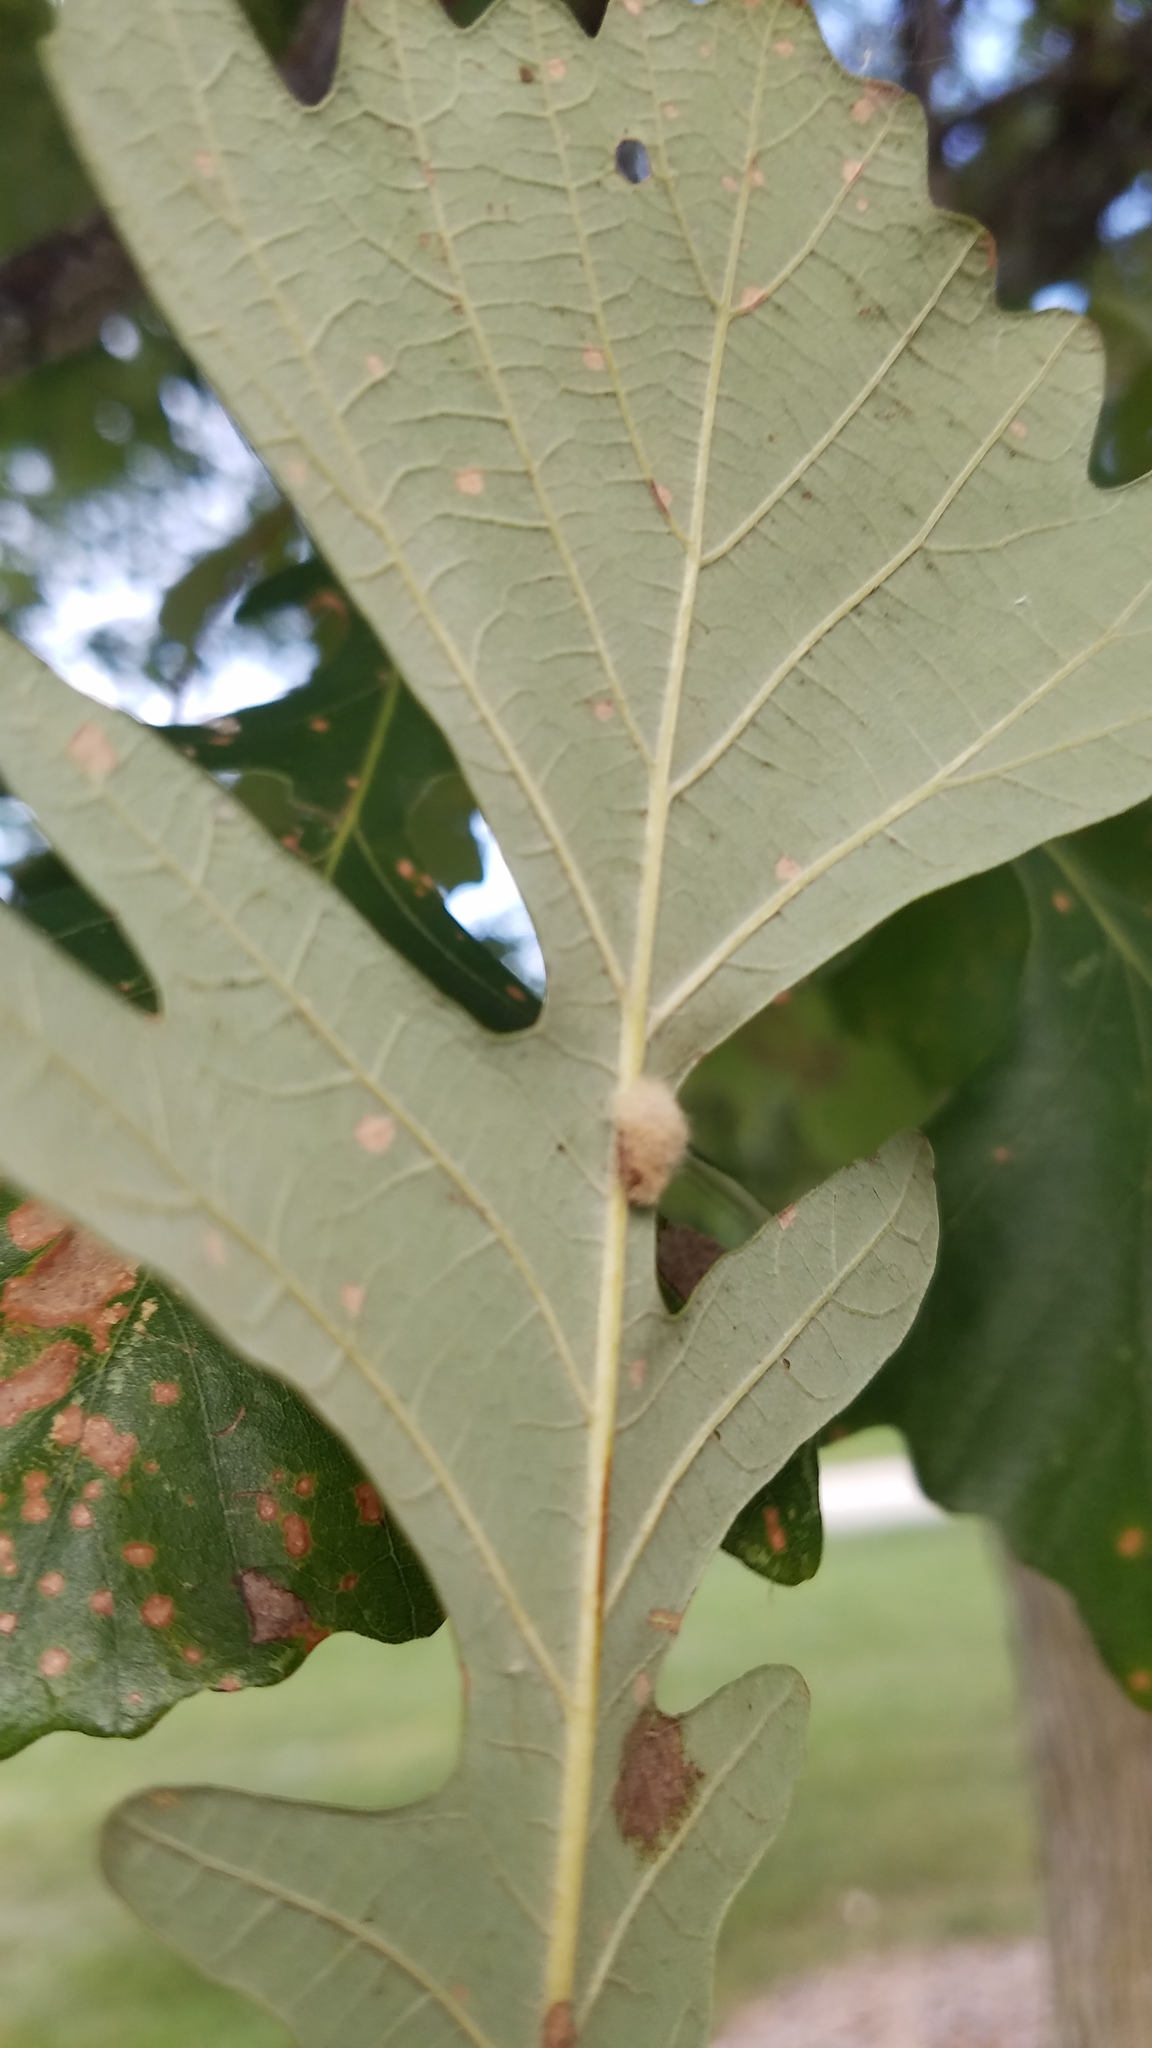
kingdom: Animalia
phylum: Arthropoda
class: Insecta
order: Hymenoptera
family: Cynipidae
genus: Andricus
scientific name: Andricus Druon ignotum
